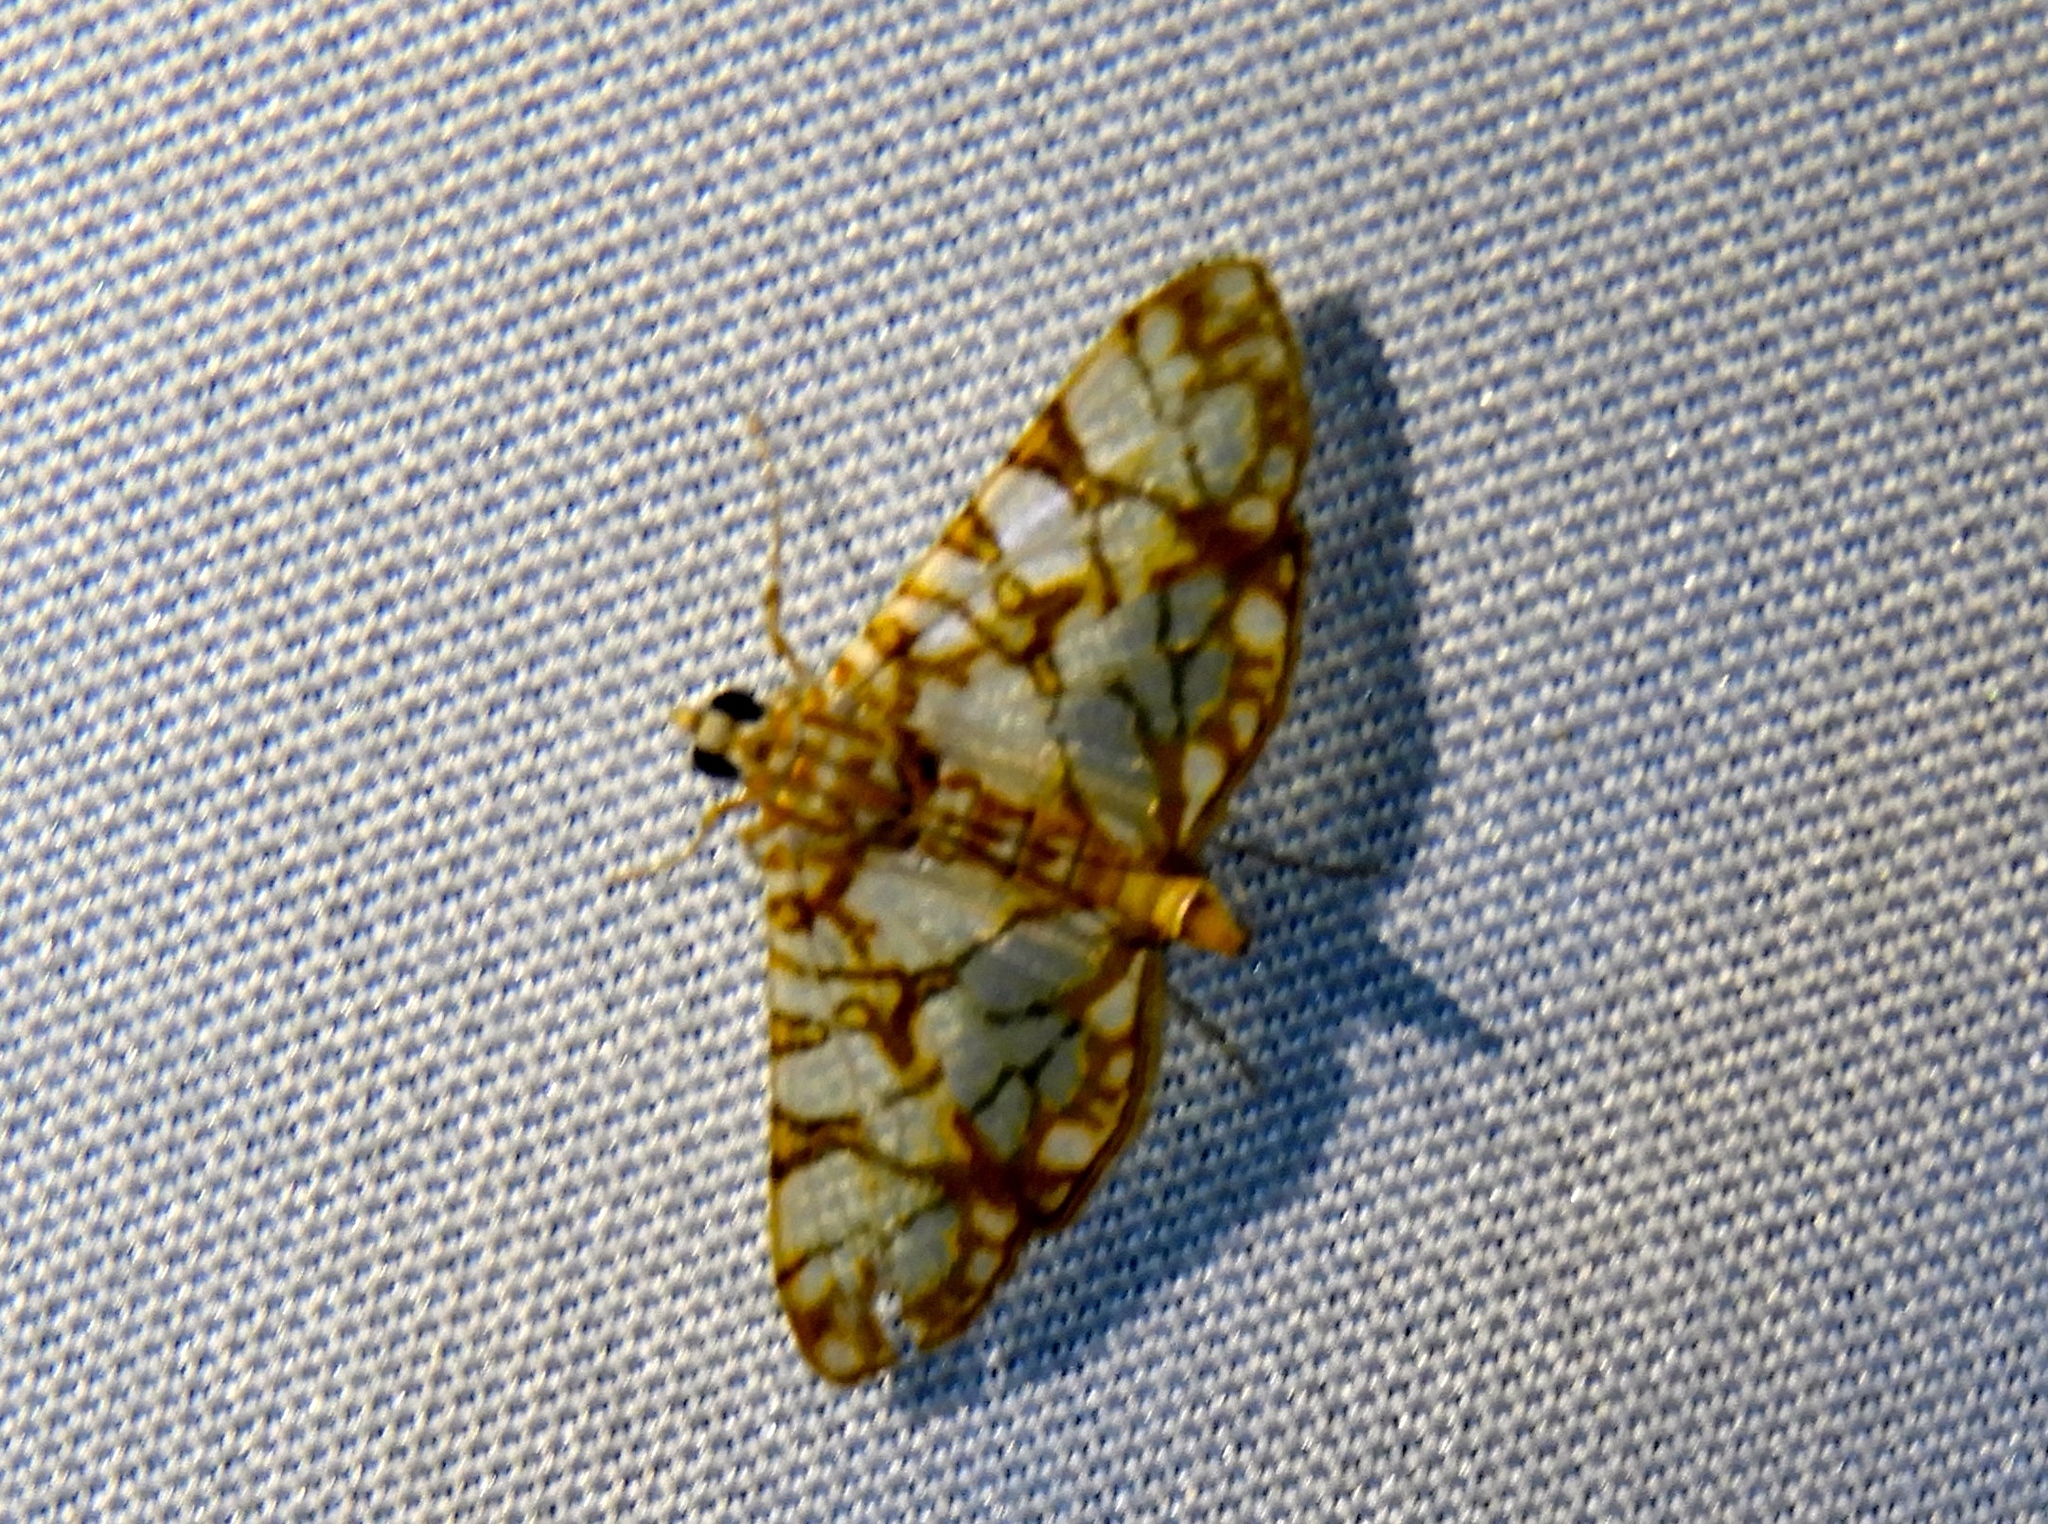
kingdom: Animalia
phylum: Arthropoda
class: Insecta
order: Lepidoptera
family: Crambidae
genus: Synclera
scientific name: Synclera traducalis
